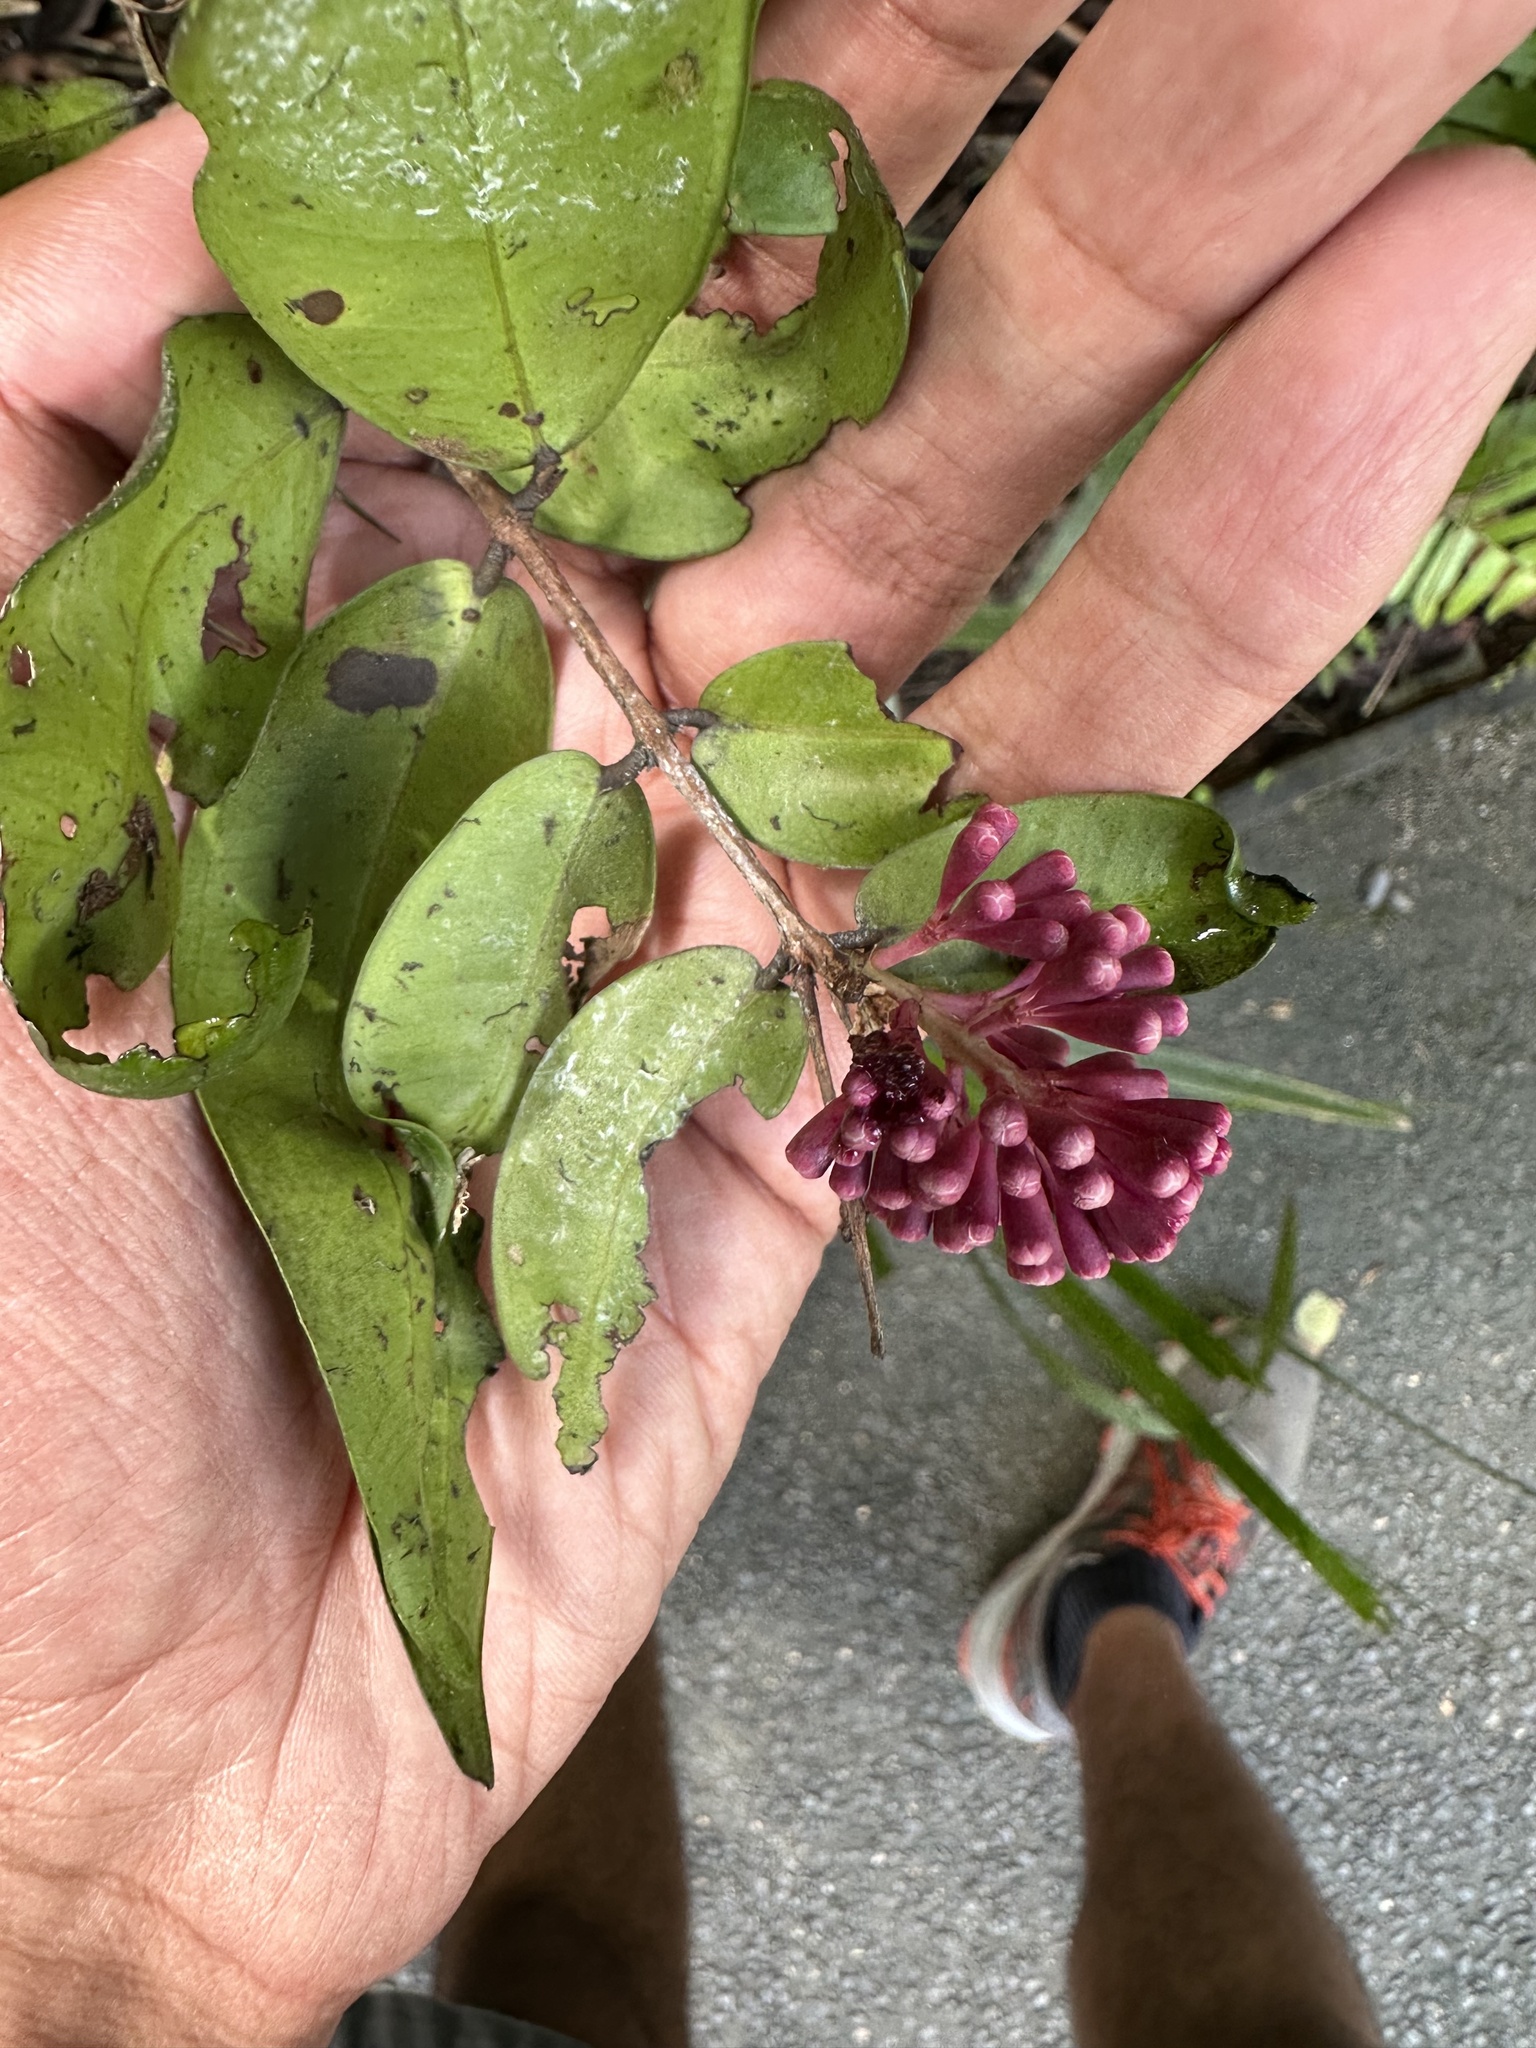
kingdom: Plantae
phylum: Tracheophyta
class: Magnoliopsida
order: Myrtales
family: Myrtaceae
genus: Syzygium
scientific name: Syzygium wilsonii
